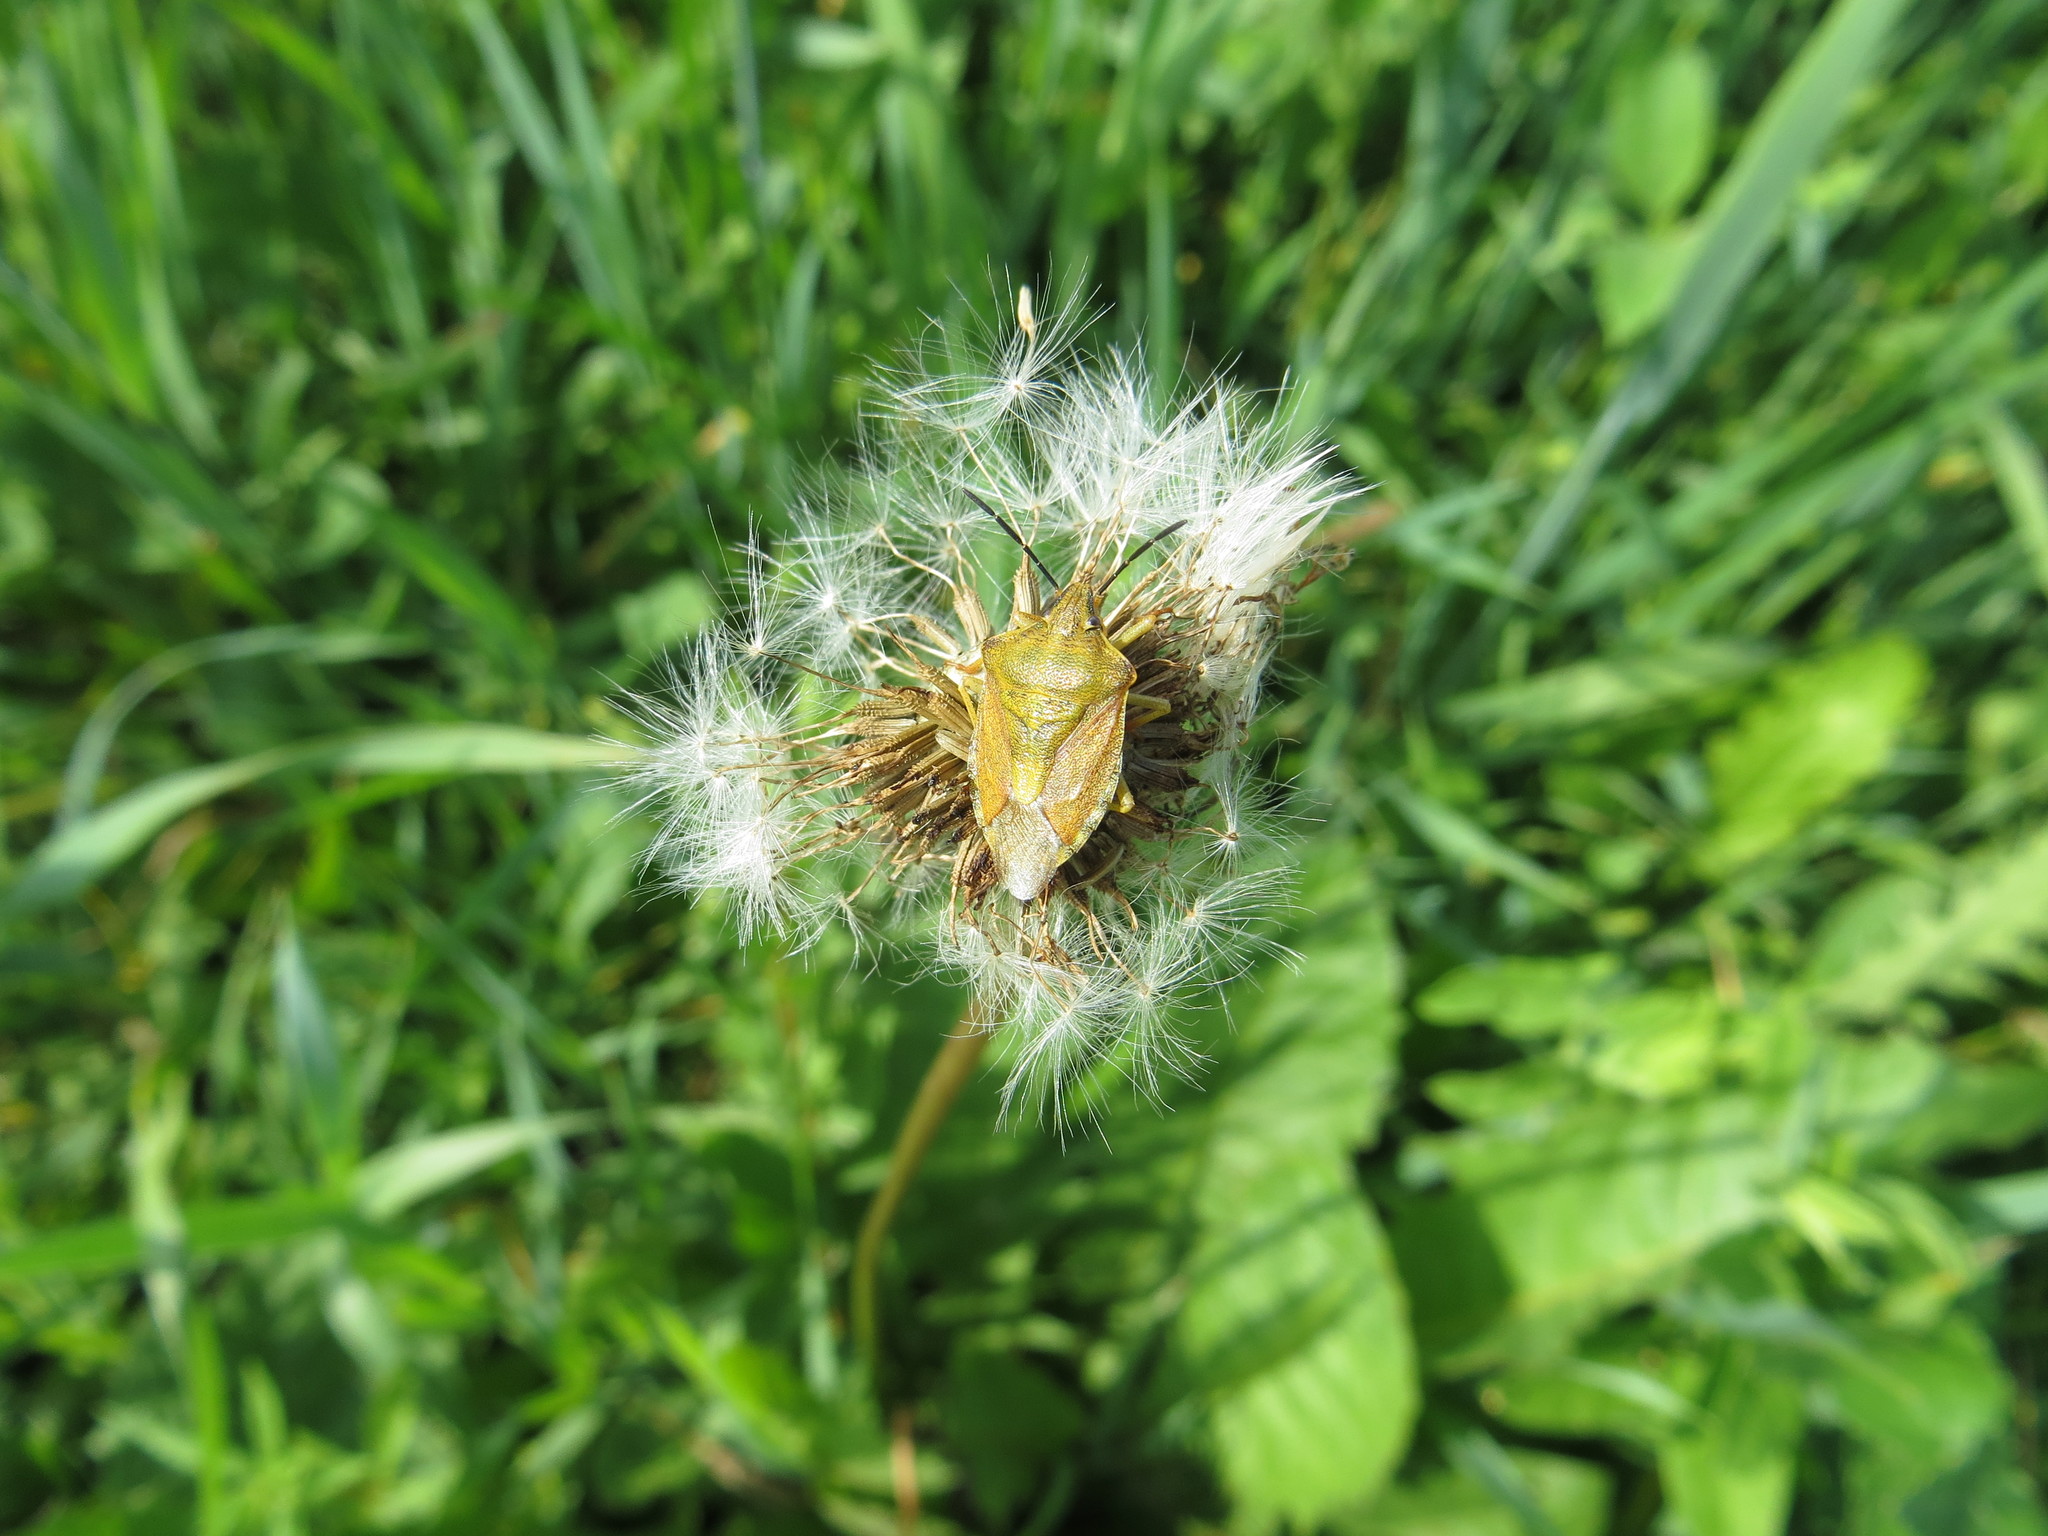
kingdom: Animalia
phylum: Arthropoda
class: Insecta
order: Hemiptera
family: Pentatomidae
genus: Carpocoris
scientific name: Carpocoris purpureipennis
